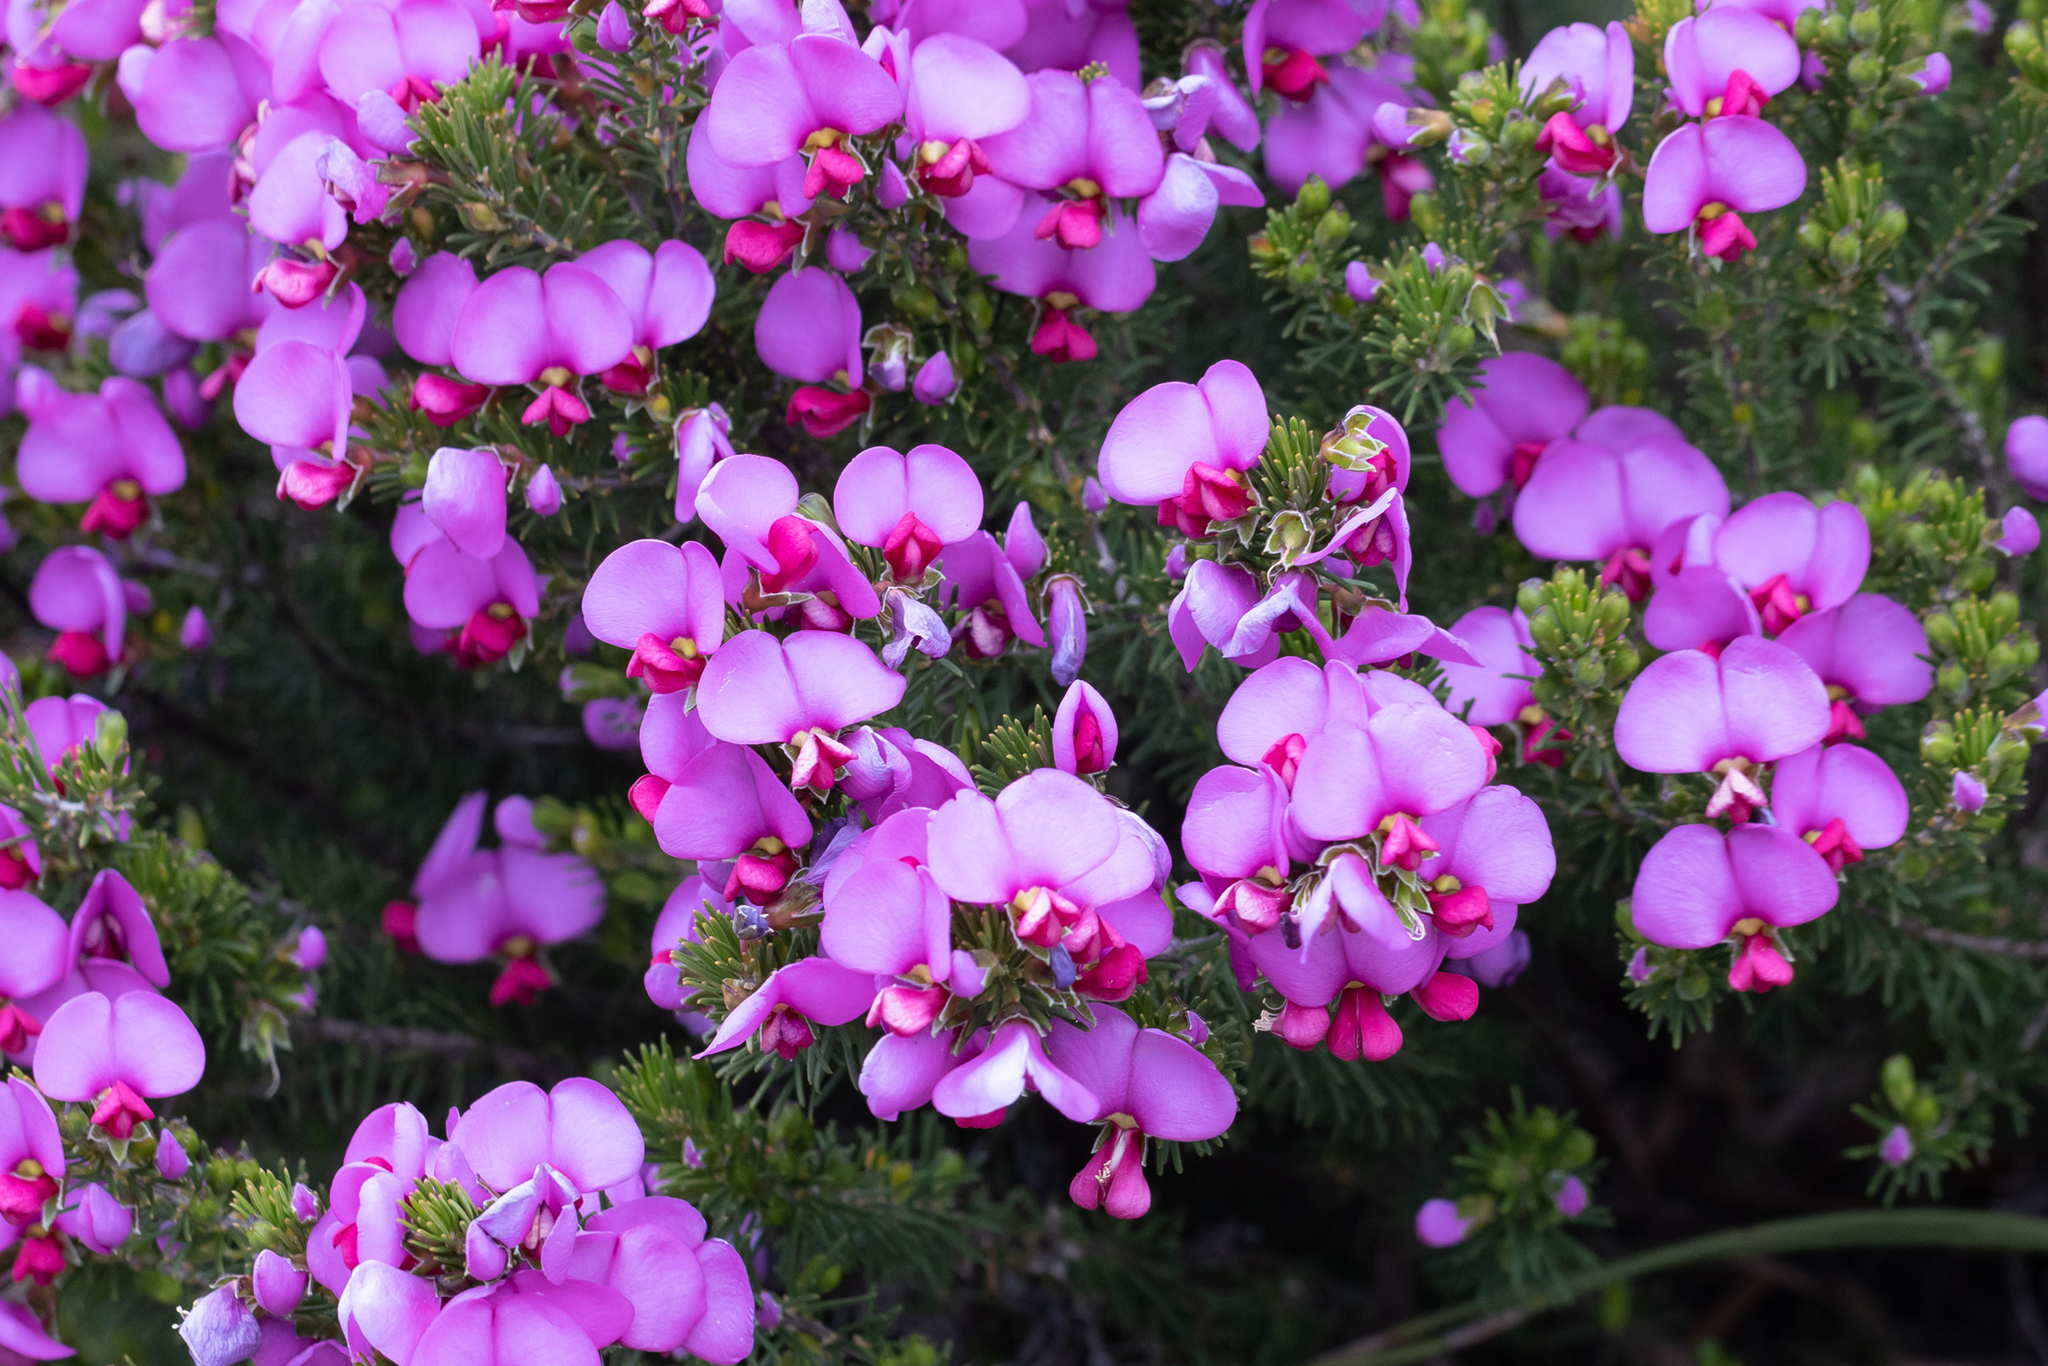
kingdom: Plantae
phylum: Tracheophyta
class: Magnoliopsida
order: Fabales
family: Fabaceae
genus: Gompholobium
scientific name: Gompholobium scabrum
